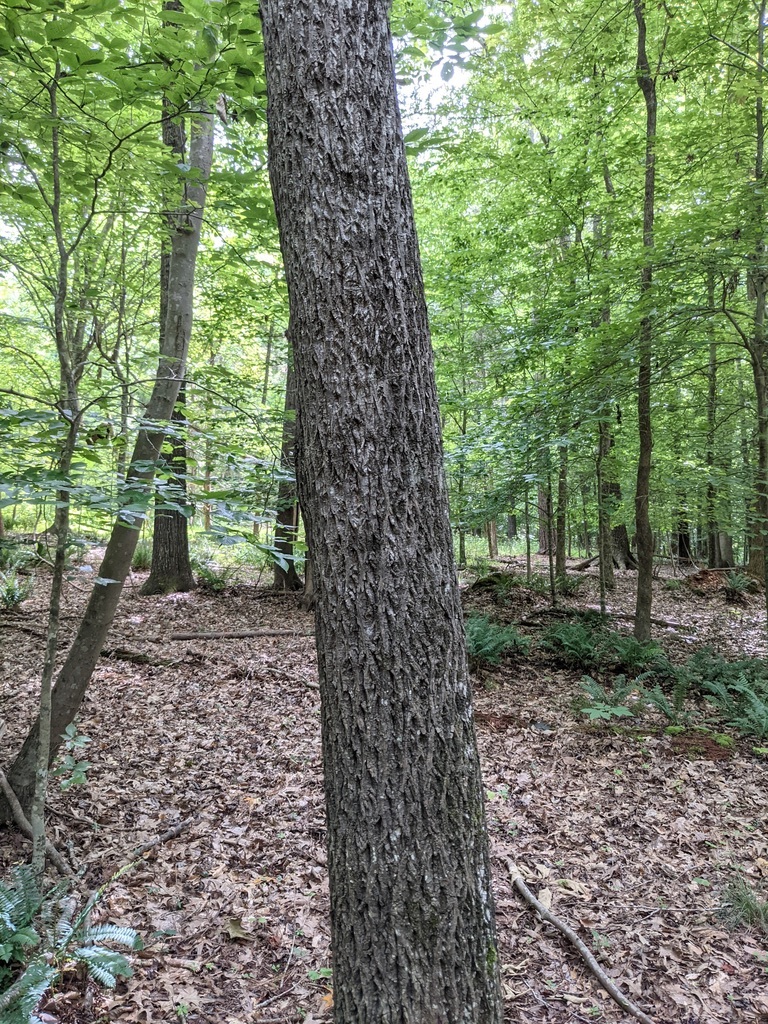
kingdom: Plantae
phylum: Tracheophyta
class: Magnoliopsida
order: Lamiales
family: Oleaceae
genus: Fraxinus
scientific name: Fraxinus americana
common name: White ash
